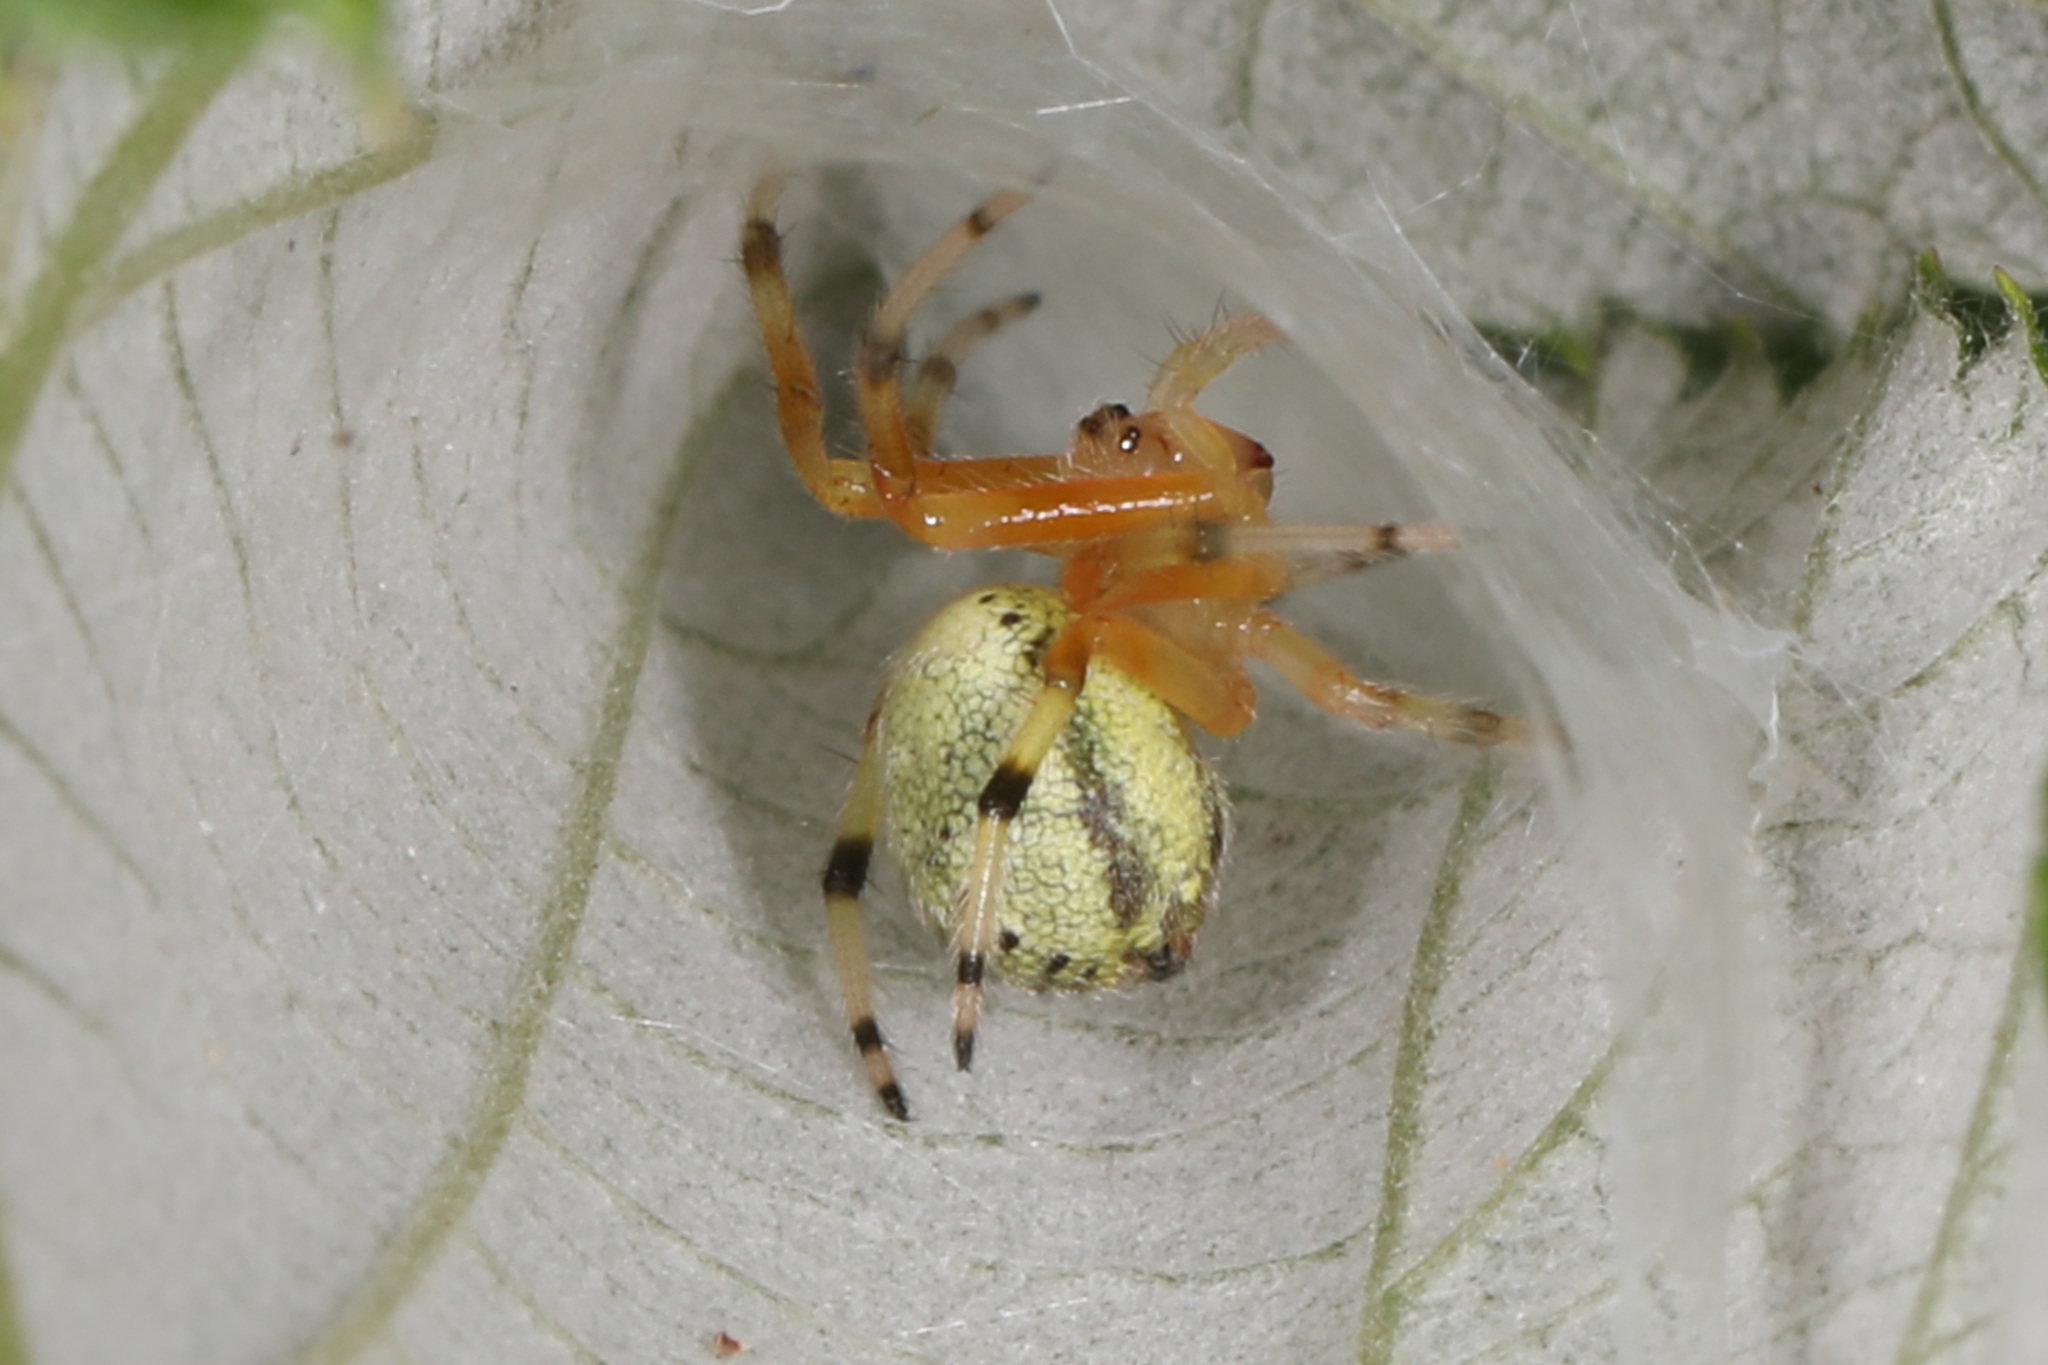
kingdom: Animalia
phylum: Arthropoda
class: Arachnida
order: Araneae
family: Araneidae
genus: Araneus
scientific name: Araneus thaddeus
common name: Lattice orbweaver
